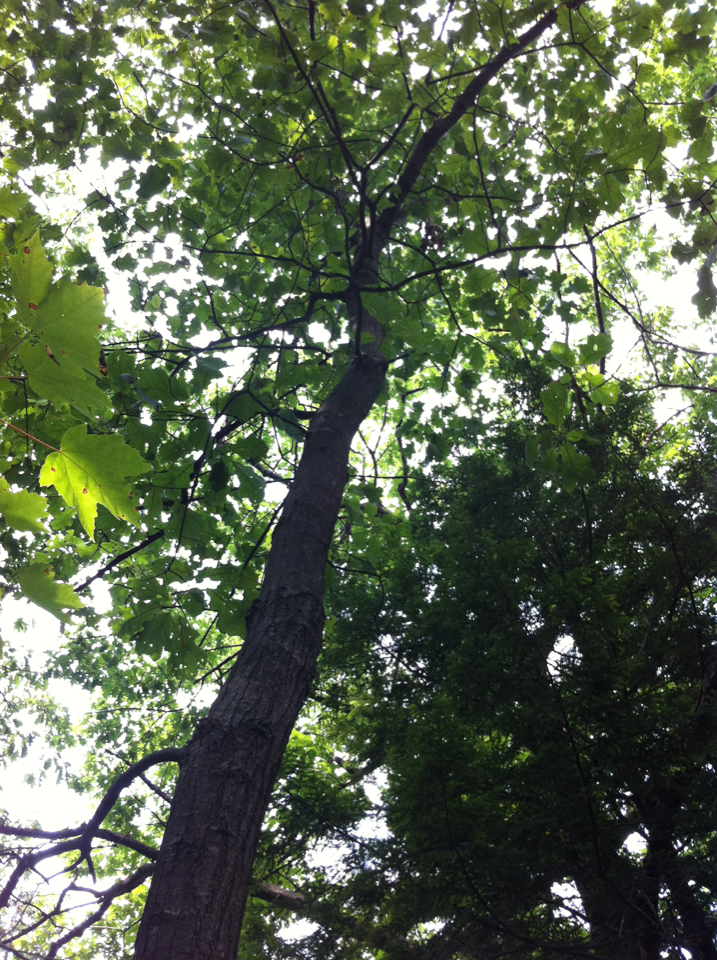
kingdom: Plantae
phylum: Tracheophyta
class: Magnoliopsida
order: Fagales
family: Fagaceae
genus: Quercus
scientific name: Quercus velutina
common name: Black oak
